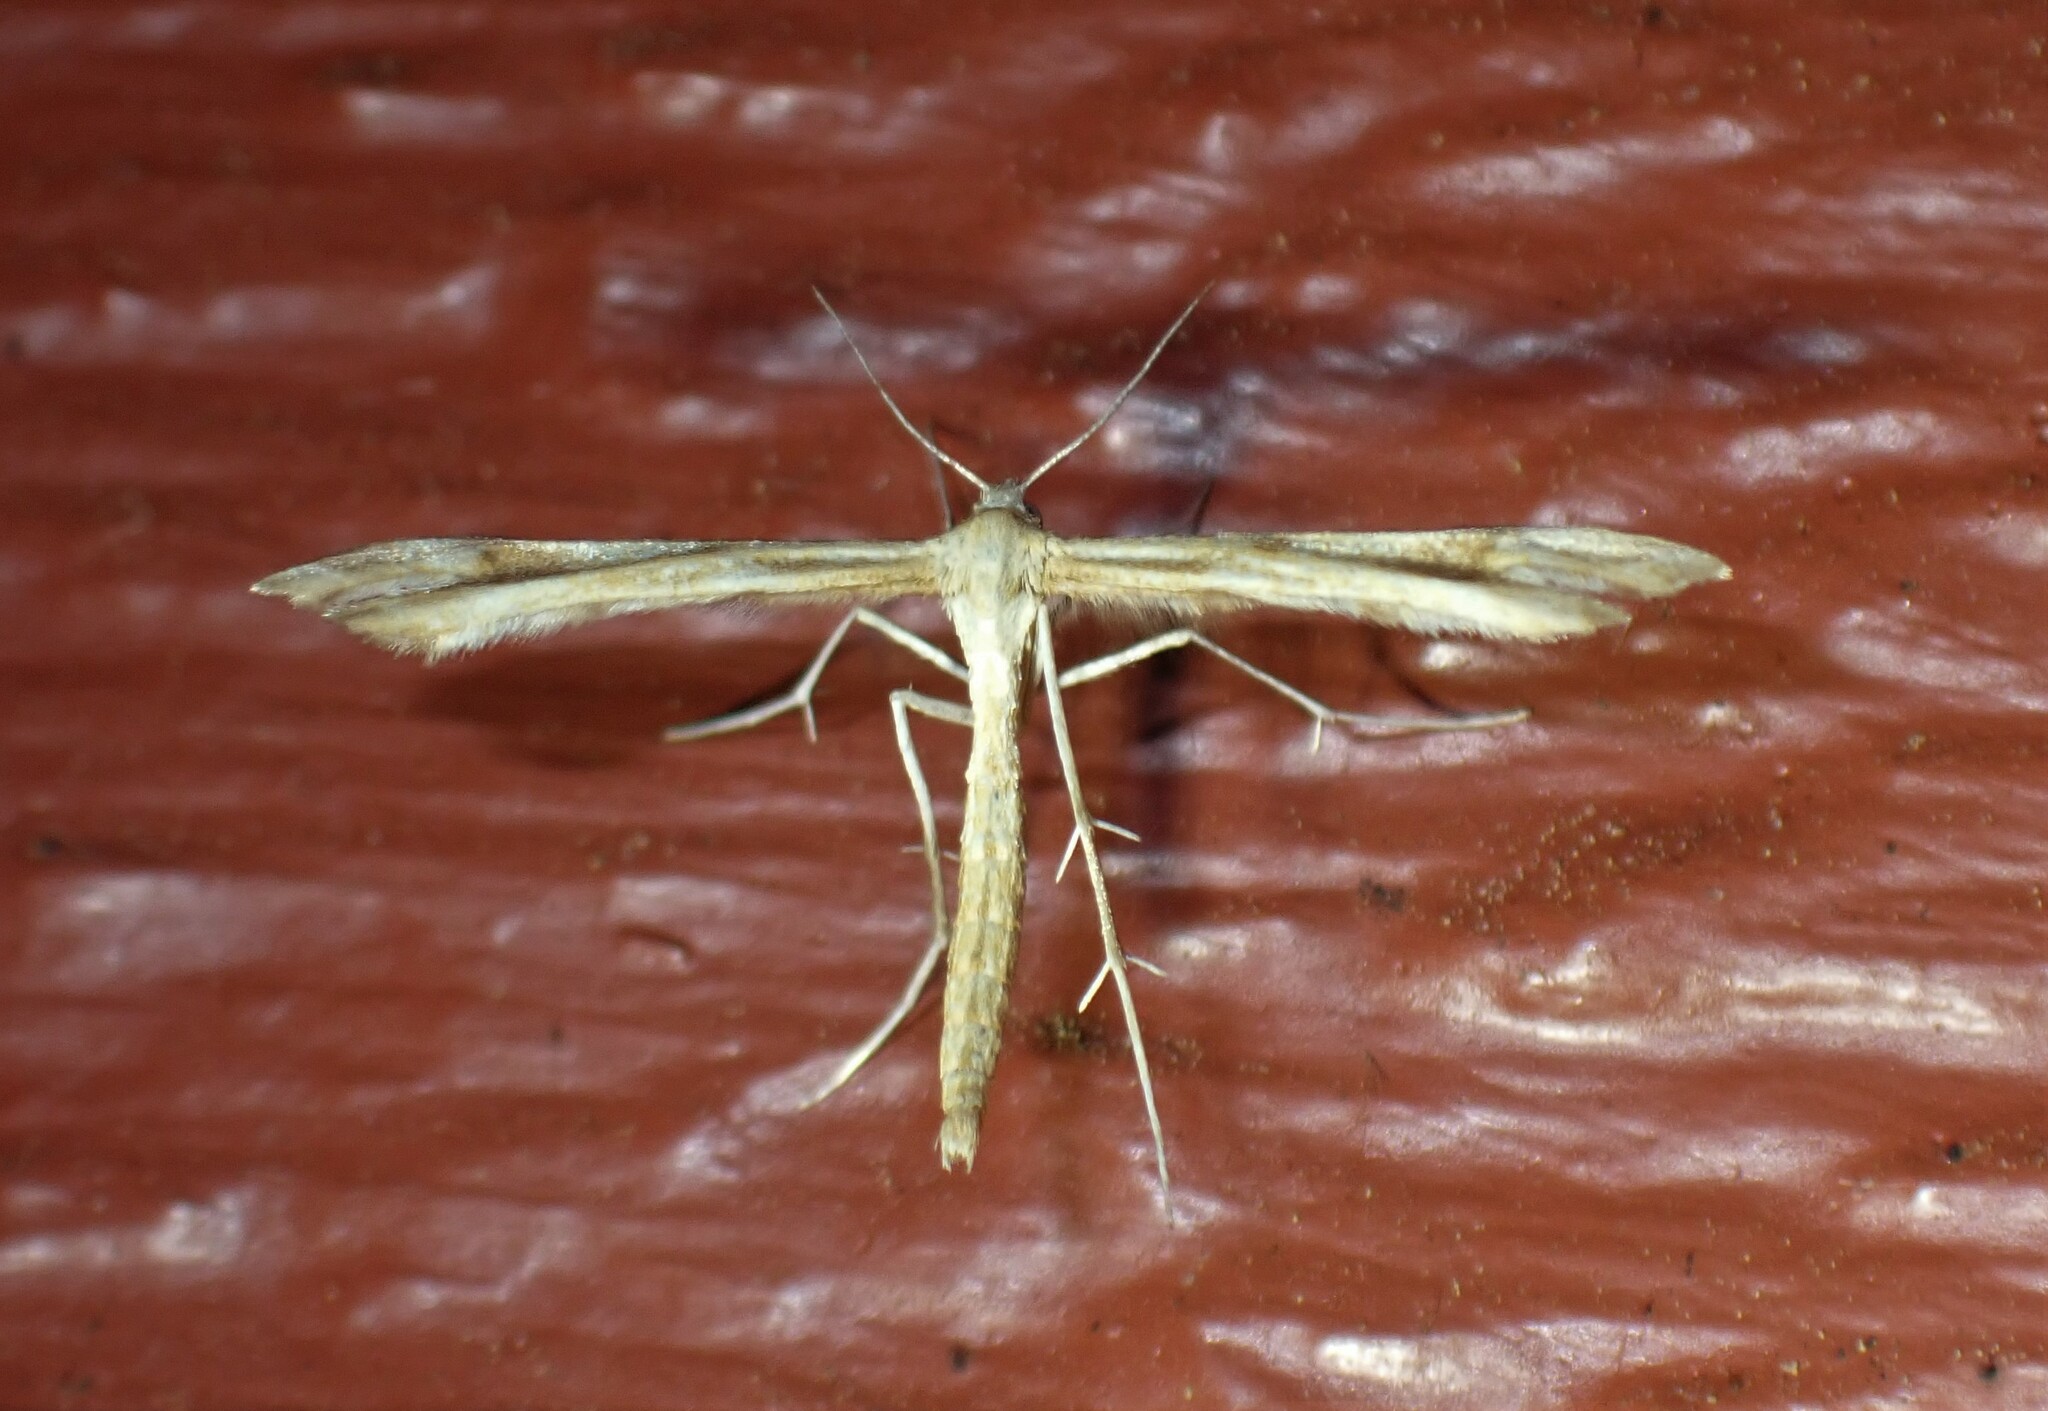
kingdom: Animalia
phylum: Arthropoda
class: Insecta
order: Lepidoptera
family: Pterophoridae
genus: Gillmeria
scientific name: Gillmeria pallidactyla
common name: Yarrow plume
